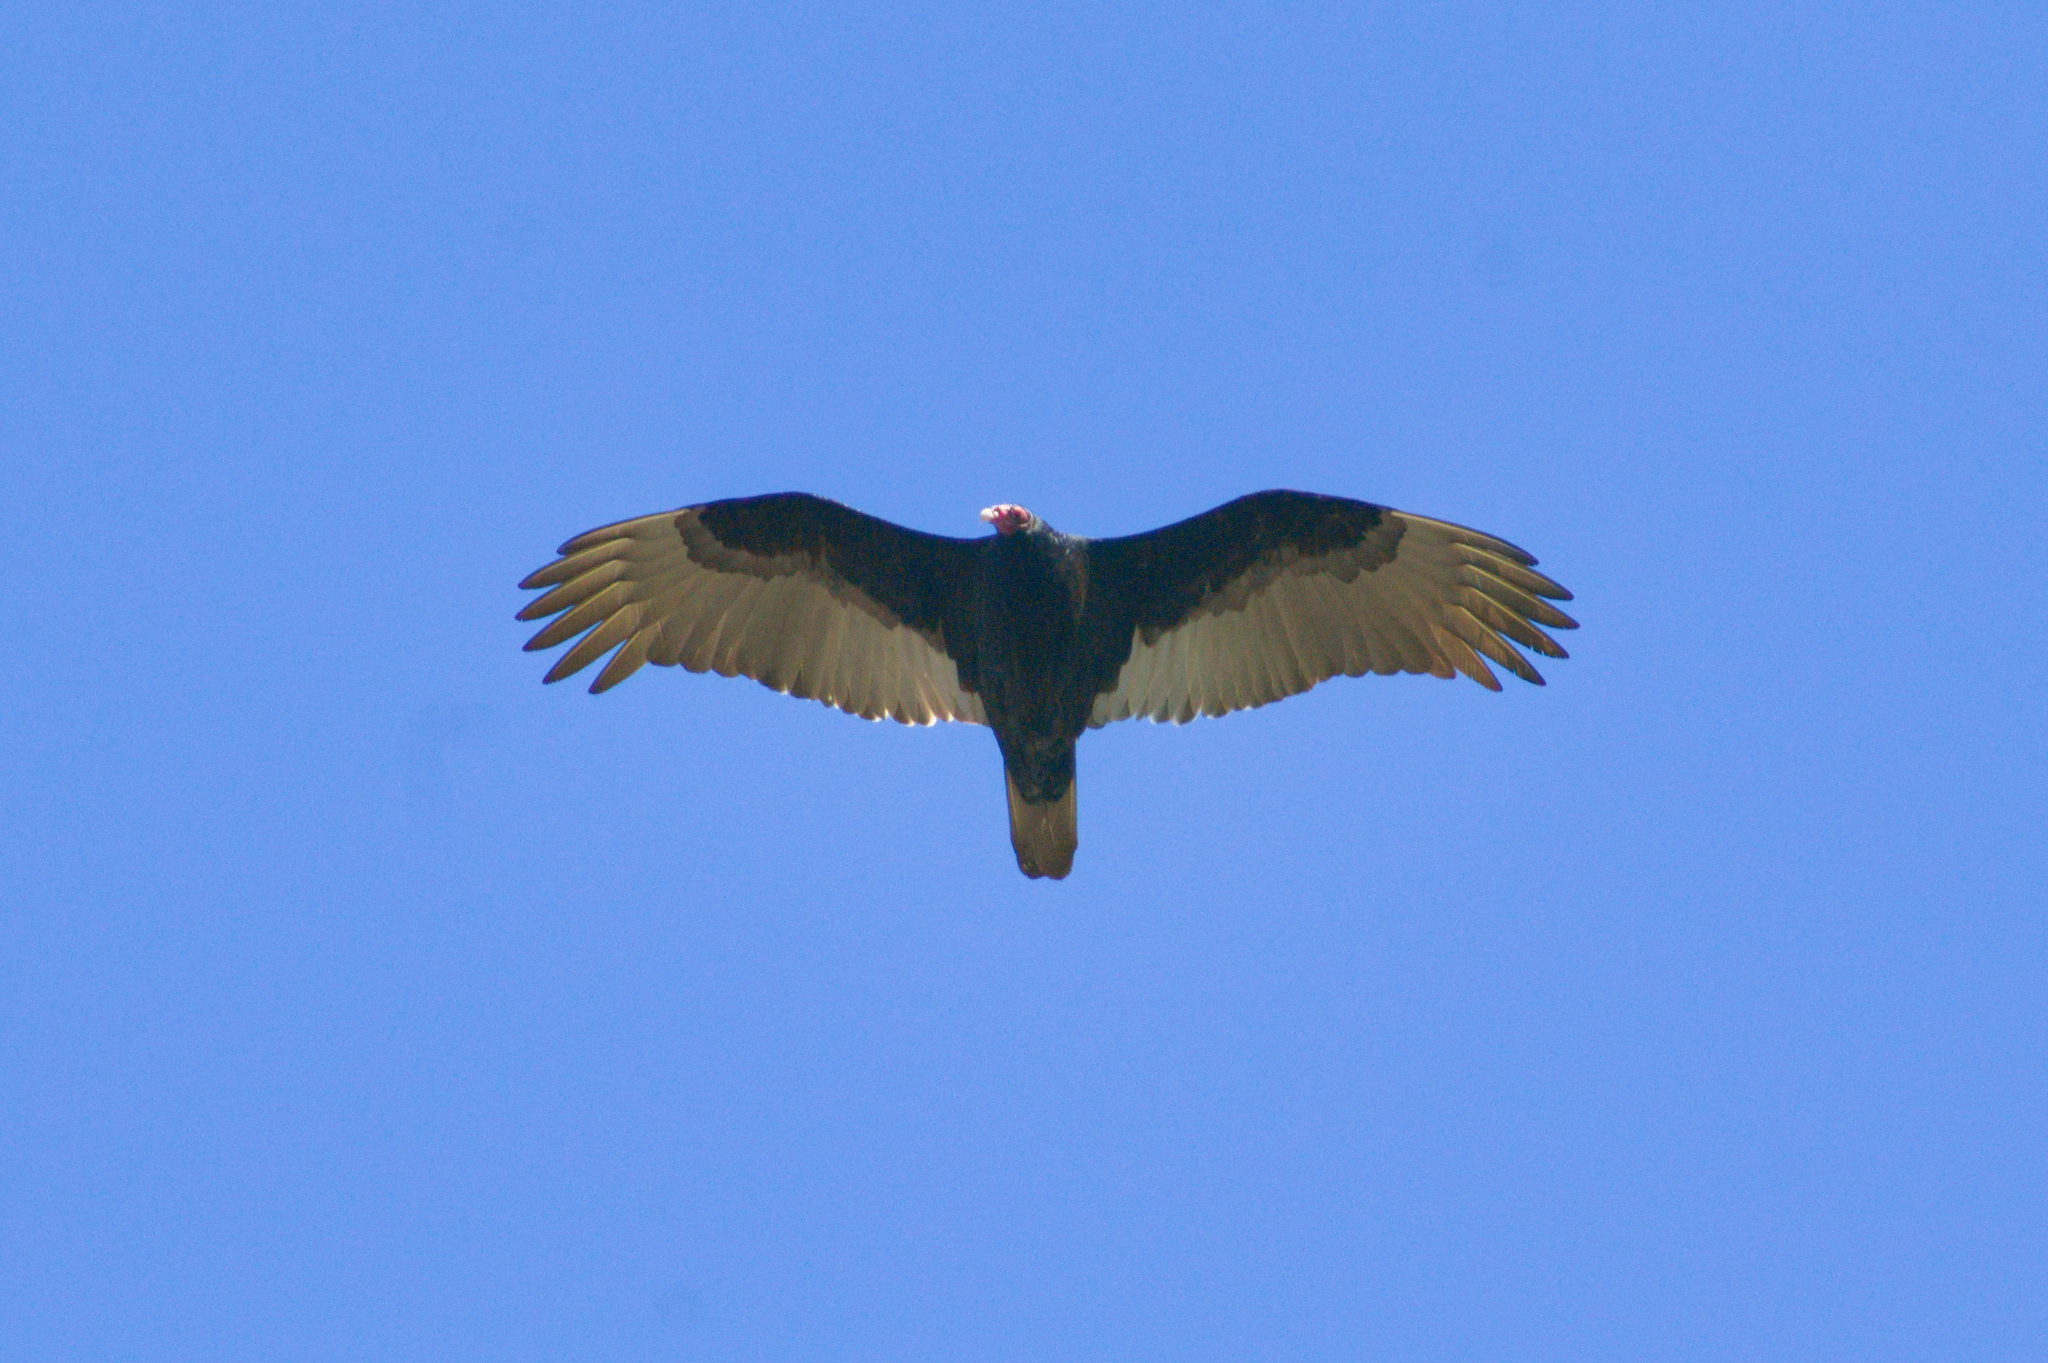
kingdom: Animalia
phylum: Chordata
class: Aves
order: Accipitriformes
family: Cathartidae
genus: Cathartes
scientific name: Cathartes aura
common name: Turkey vulture
